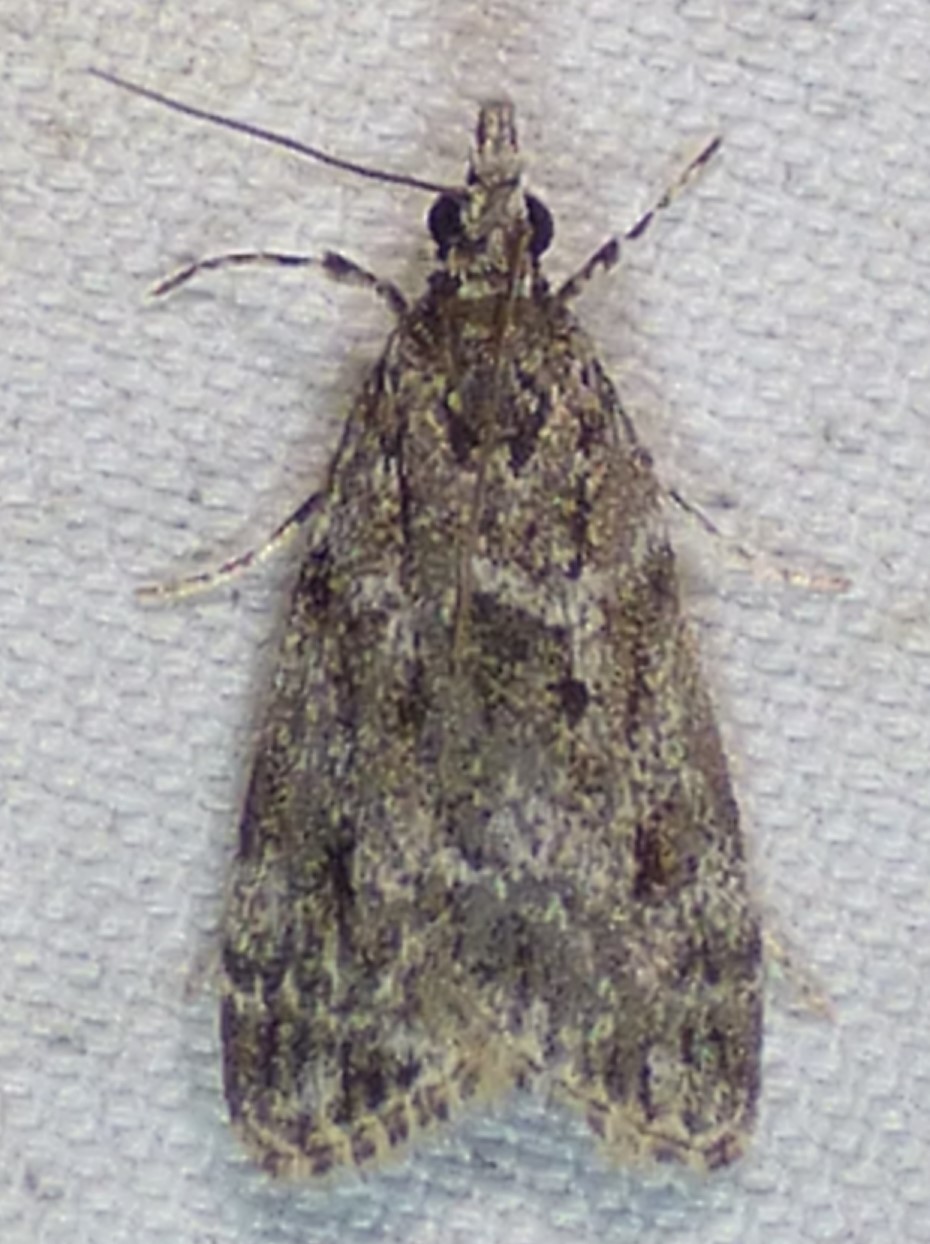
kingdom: Animalia
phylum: Arthropoda
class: Insecta
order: Lepidoptera
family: Crambidae
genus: Eudonia
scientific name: Eudonia heterosalis
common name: Mcdunnough's eudonia
